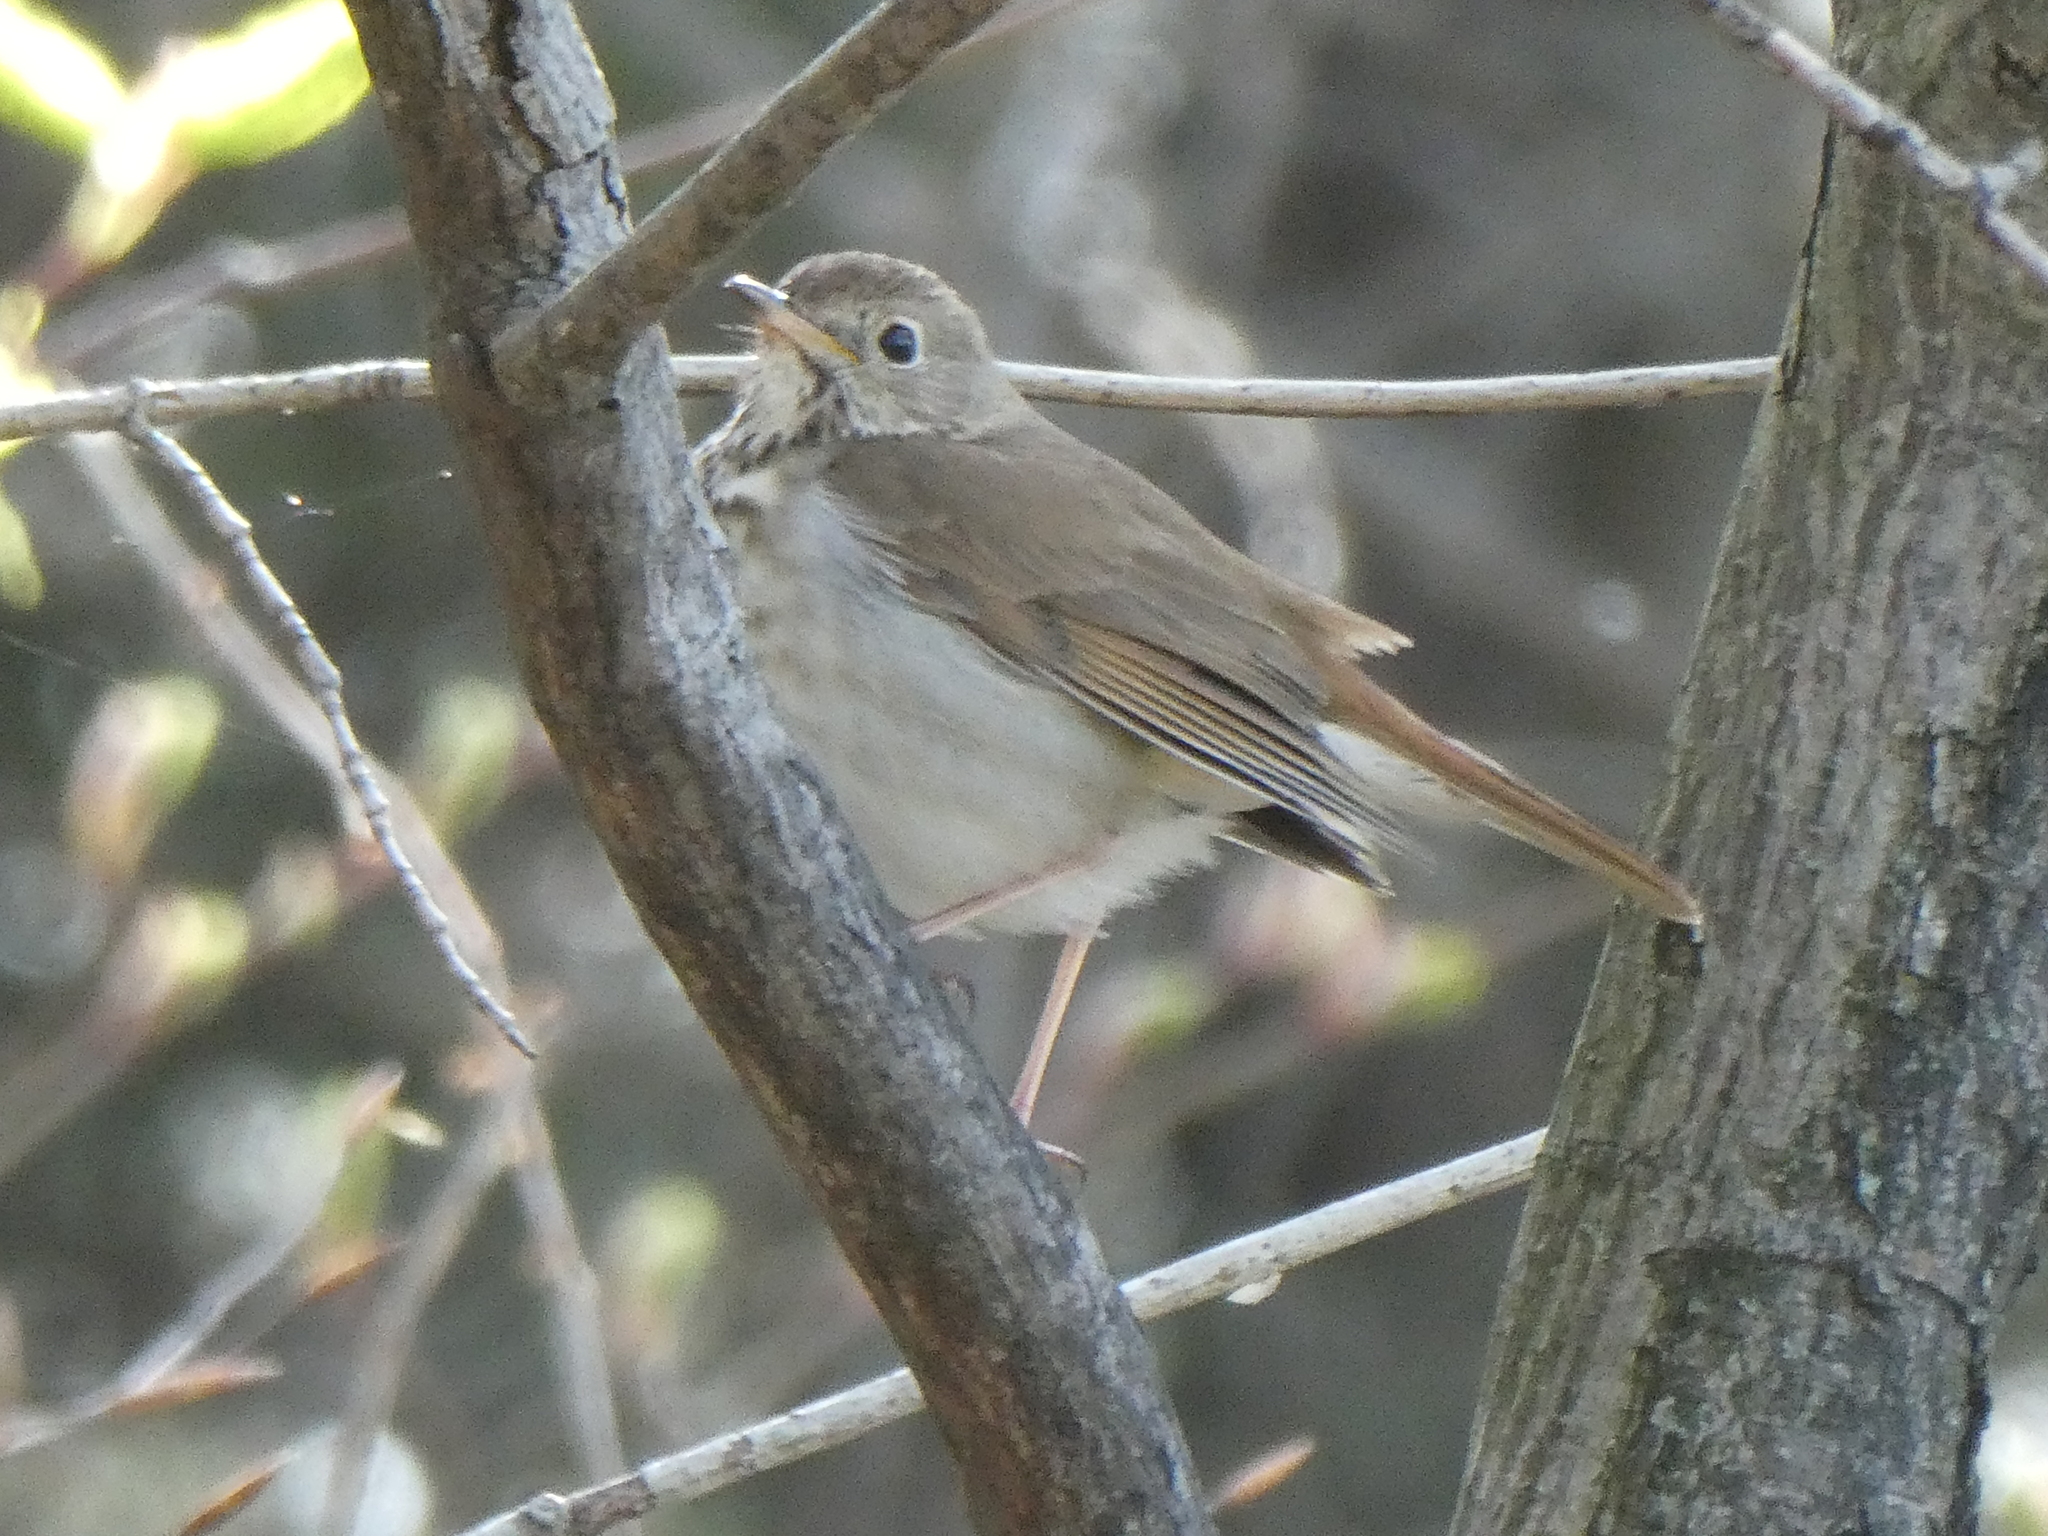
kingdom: Animalia
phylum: Chordata
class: Aves
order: Passeriformes
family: Turdidae
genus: Catharus
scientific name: Catharus guttatus
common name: Hermit thrush
